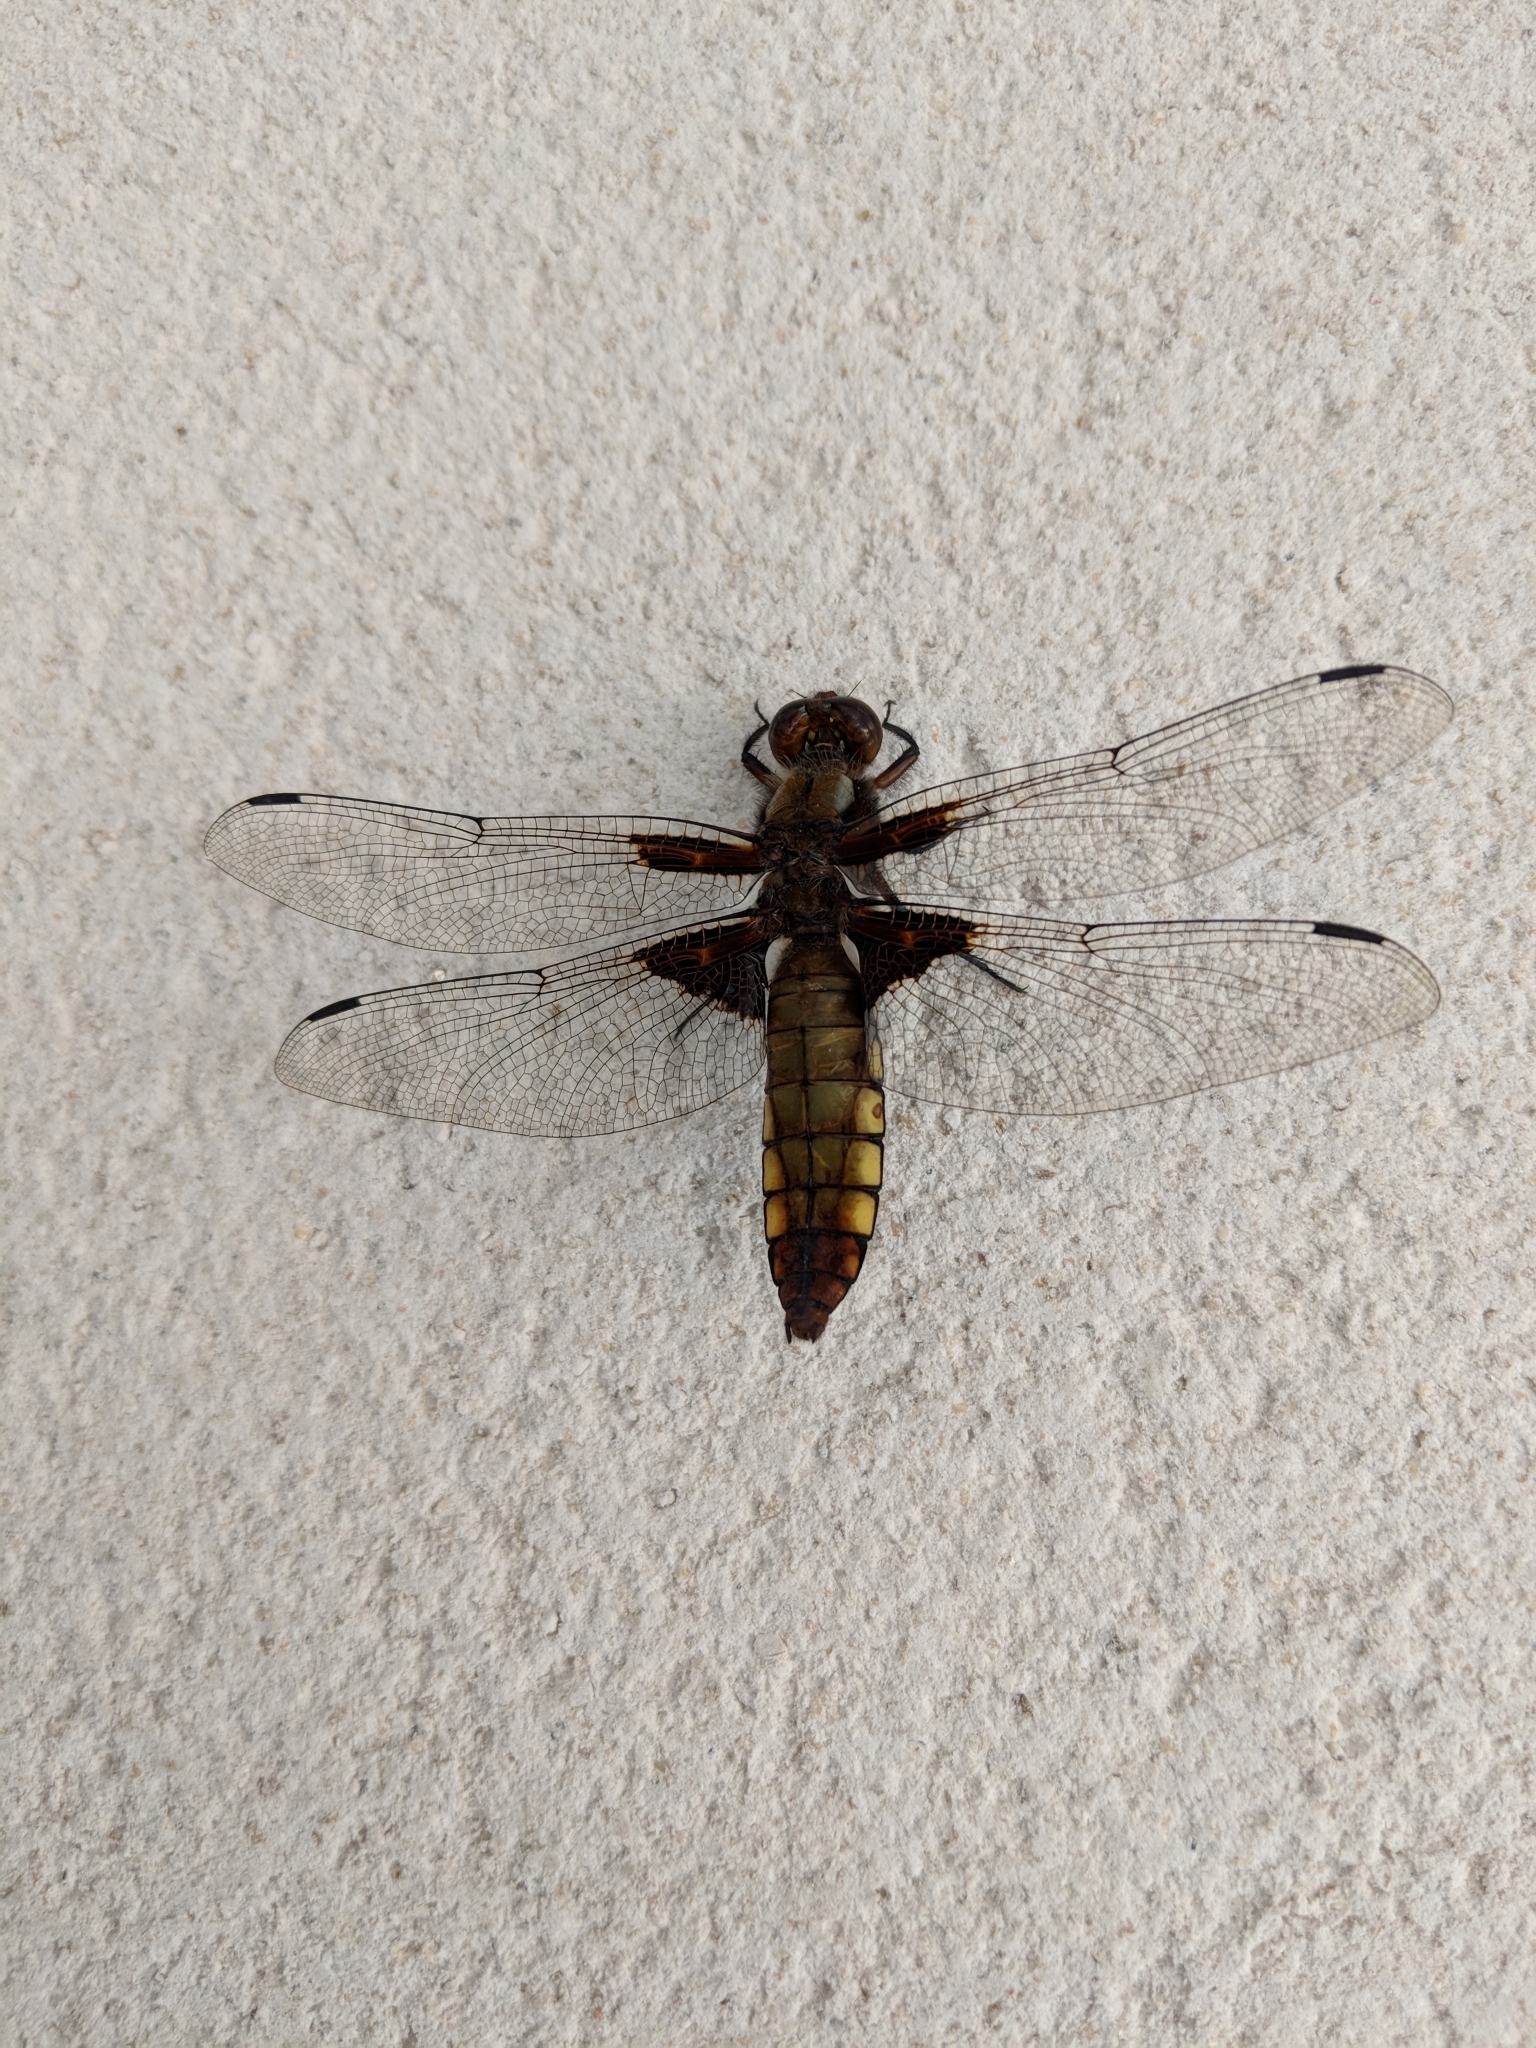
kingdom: Animalia
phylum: Arthropoda
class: Insecta
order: Odonata
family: Libellulidae
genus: Libellula
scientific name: Libellula depressa
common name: Broad-bodied chaser
